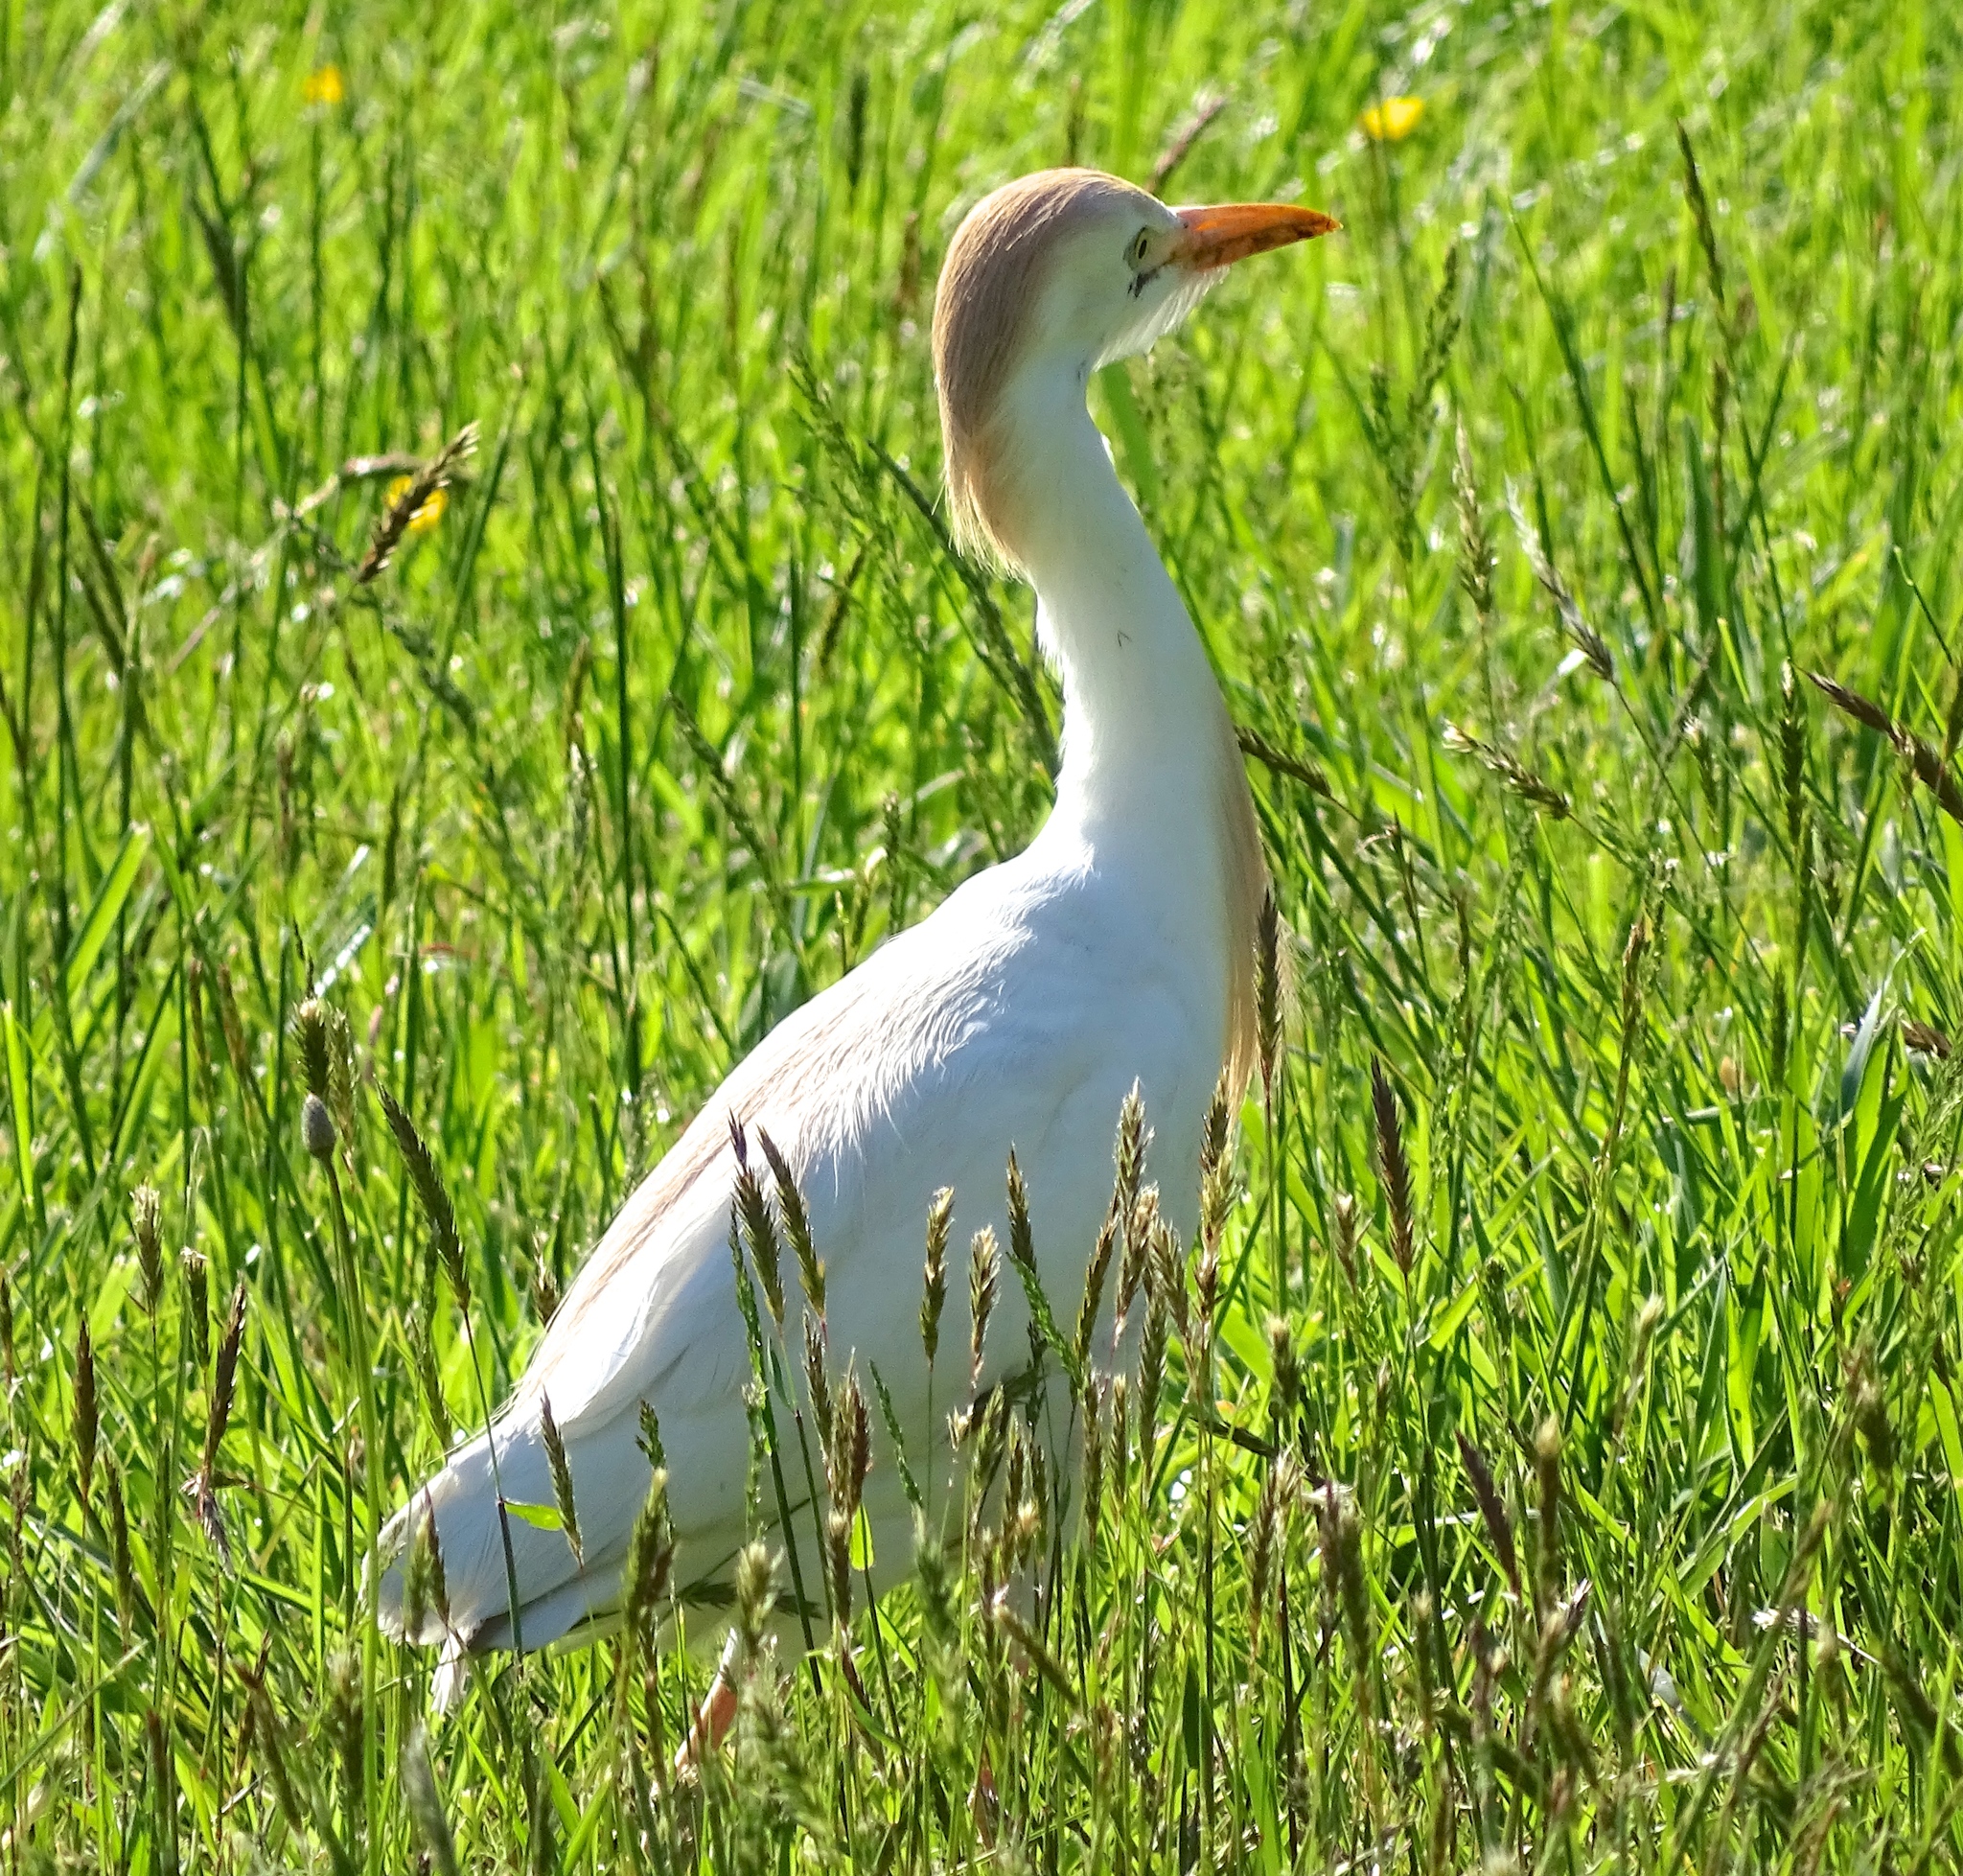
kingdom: Animalia
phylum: Chordata
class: Aves
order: Pelecaniformes
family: Ardeidae
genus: Bubulcus
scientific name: Bubulcus ibis
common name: Cattle egret
